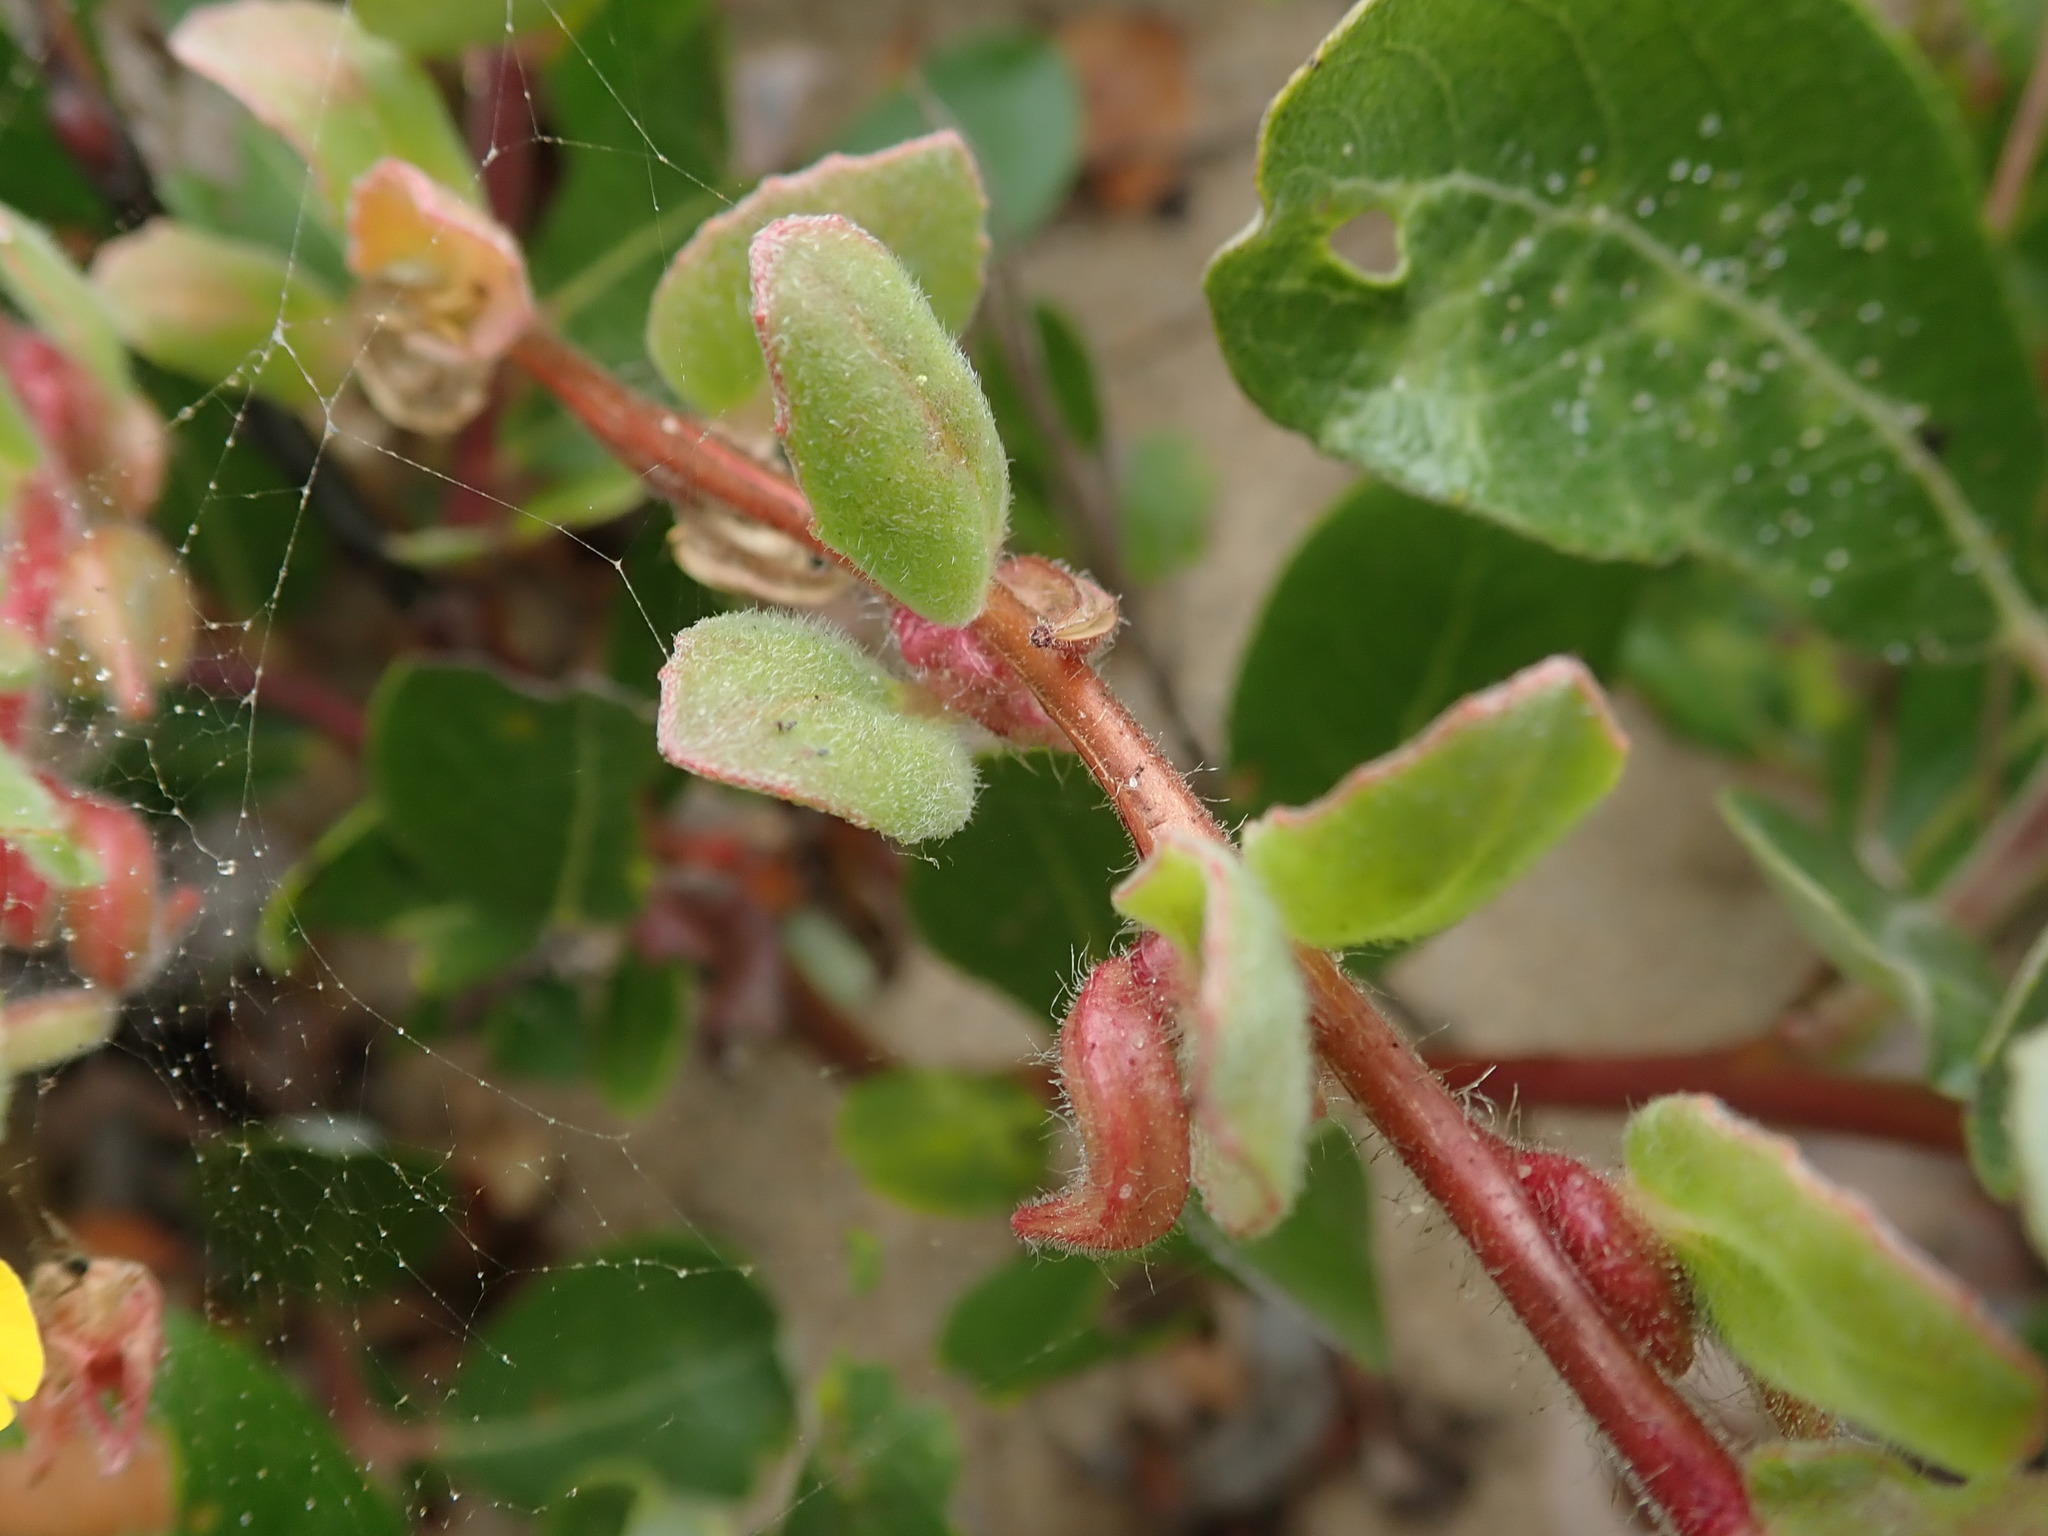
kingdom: Plantae
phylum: Tracheophyta
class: Magnoliopsida
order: Myrtales
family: Onagraceae
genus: Camissoniopsis
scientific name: Camissoniopsis cheiranthifolia
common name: Beach suncup
